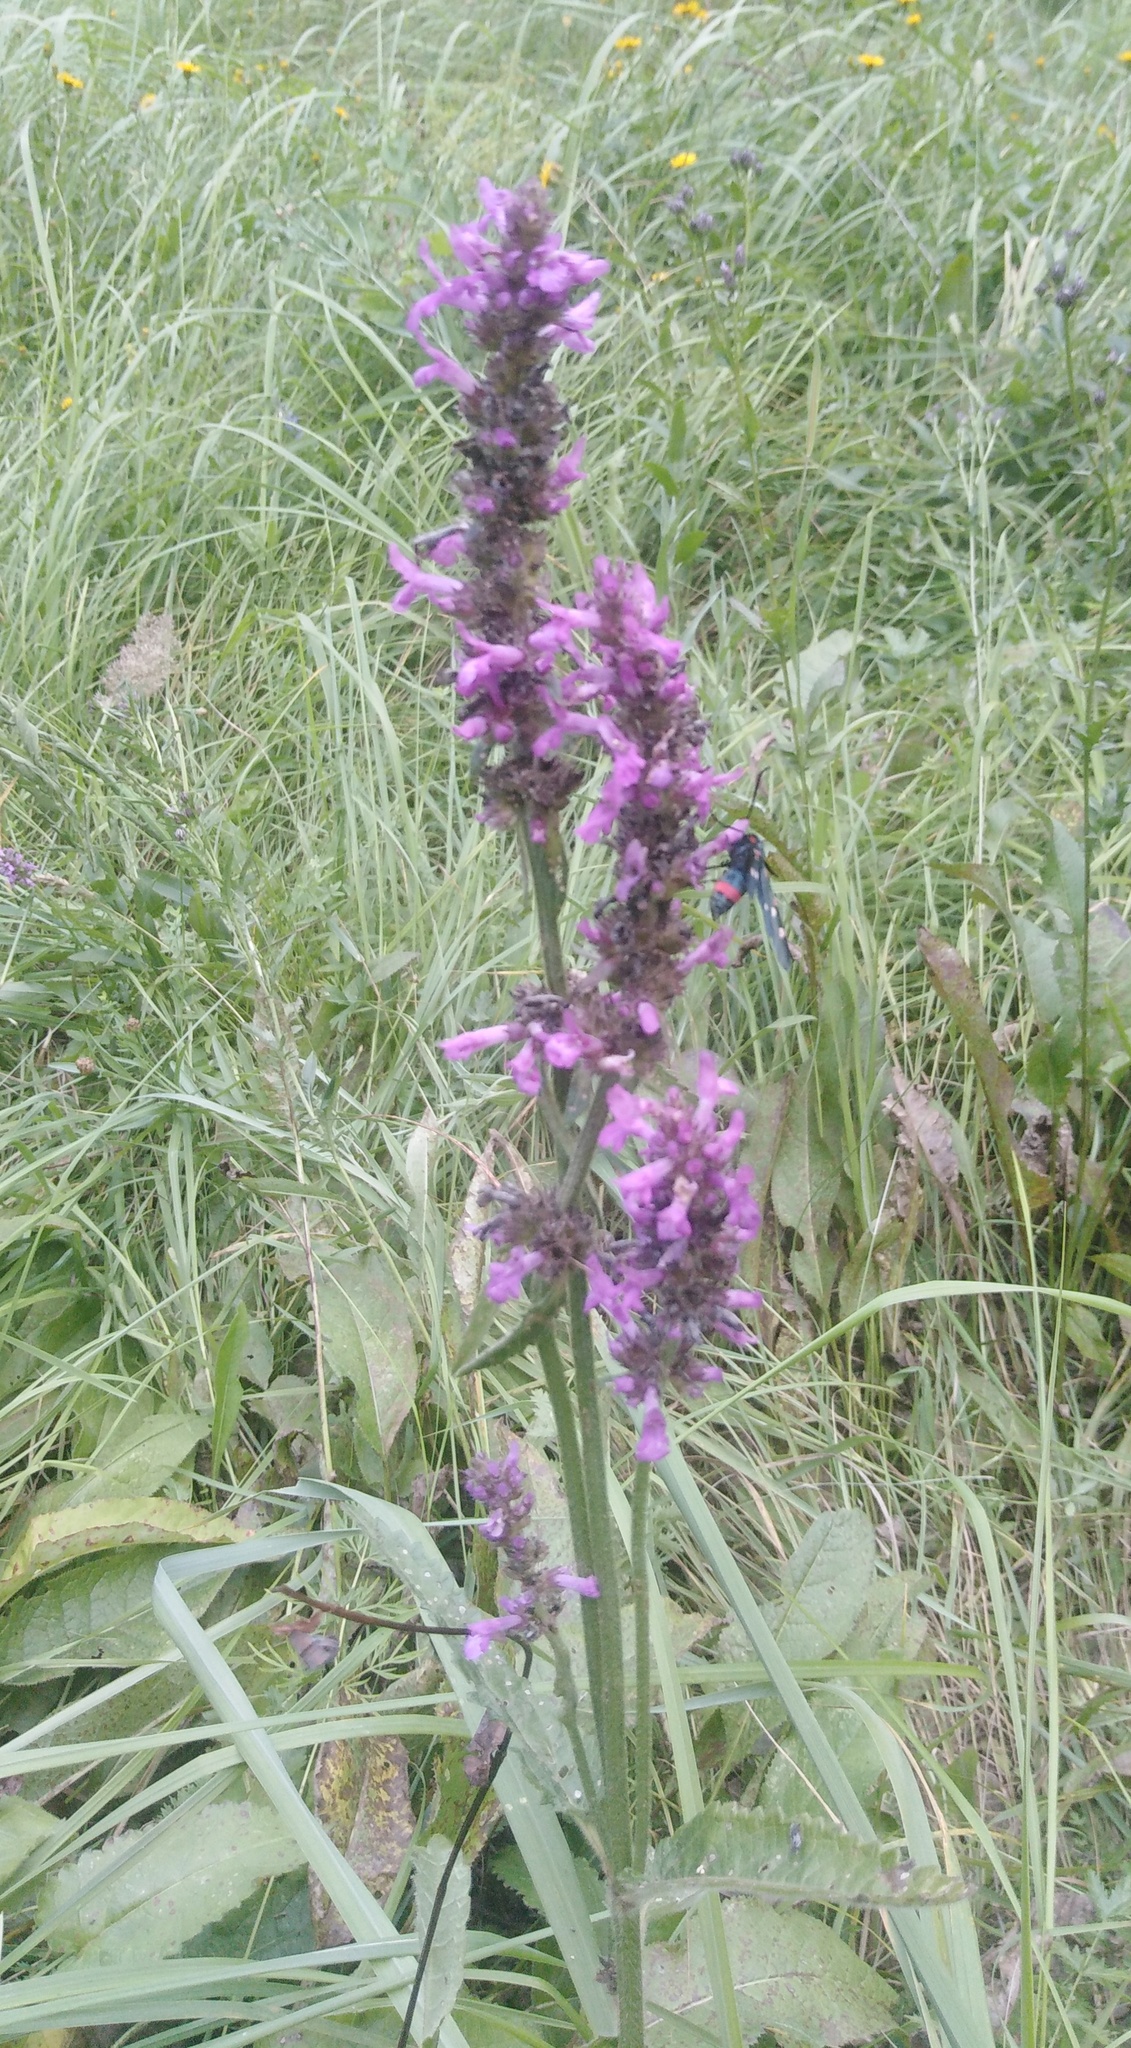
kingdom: Plantae
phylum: Tracheophyta
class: Magnoliopsida
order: Lamiales
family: Lamiaceae
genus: Betonica
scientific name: Betonica officinalis
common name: Bishop's-wort
